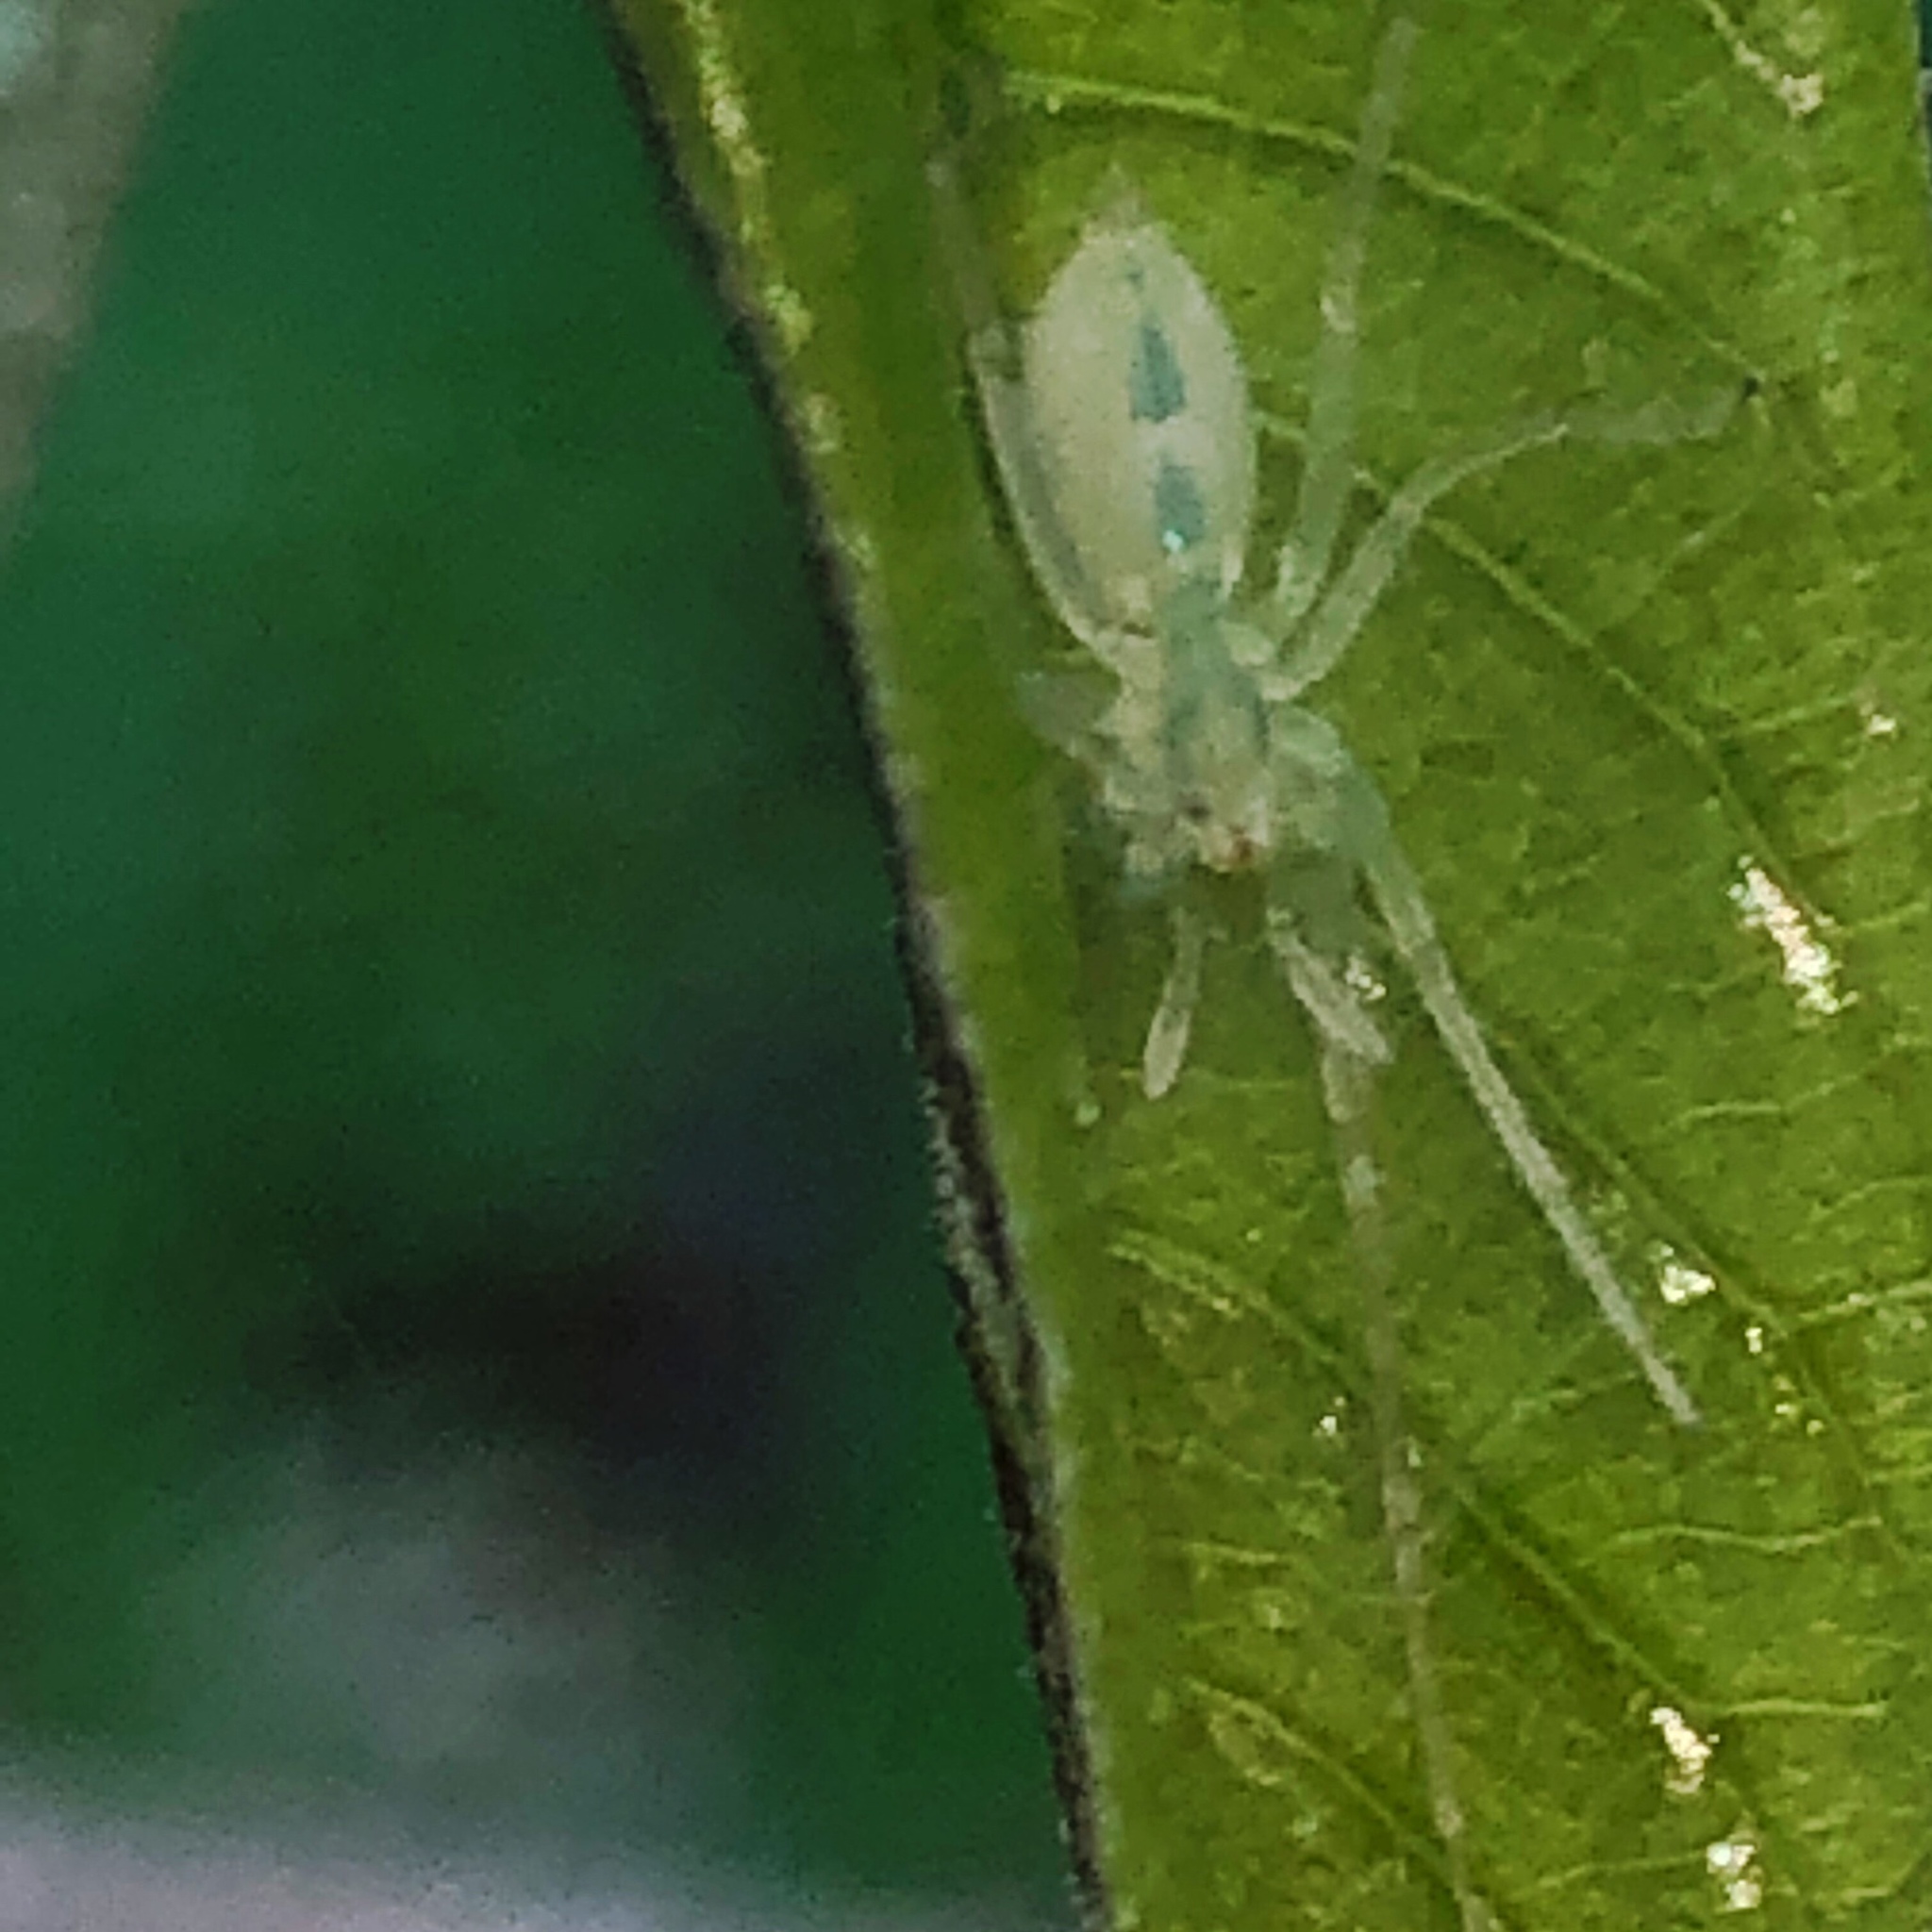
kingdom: Animalia
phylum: Arthropoda
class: Arachnida
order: Araneae
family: Anyphaenidae
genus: Wulfila
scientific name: Wulfila albens
